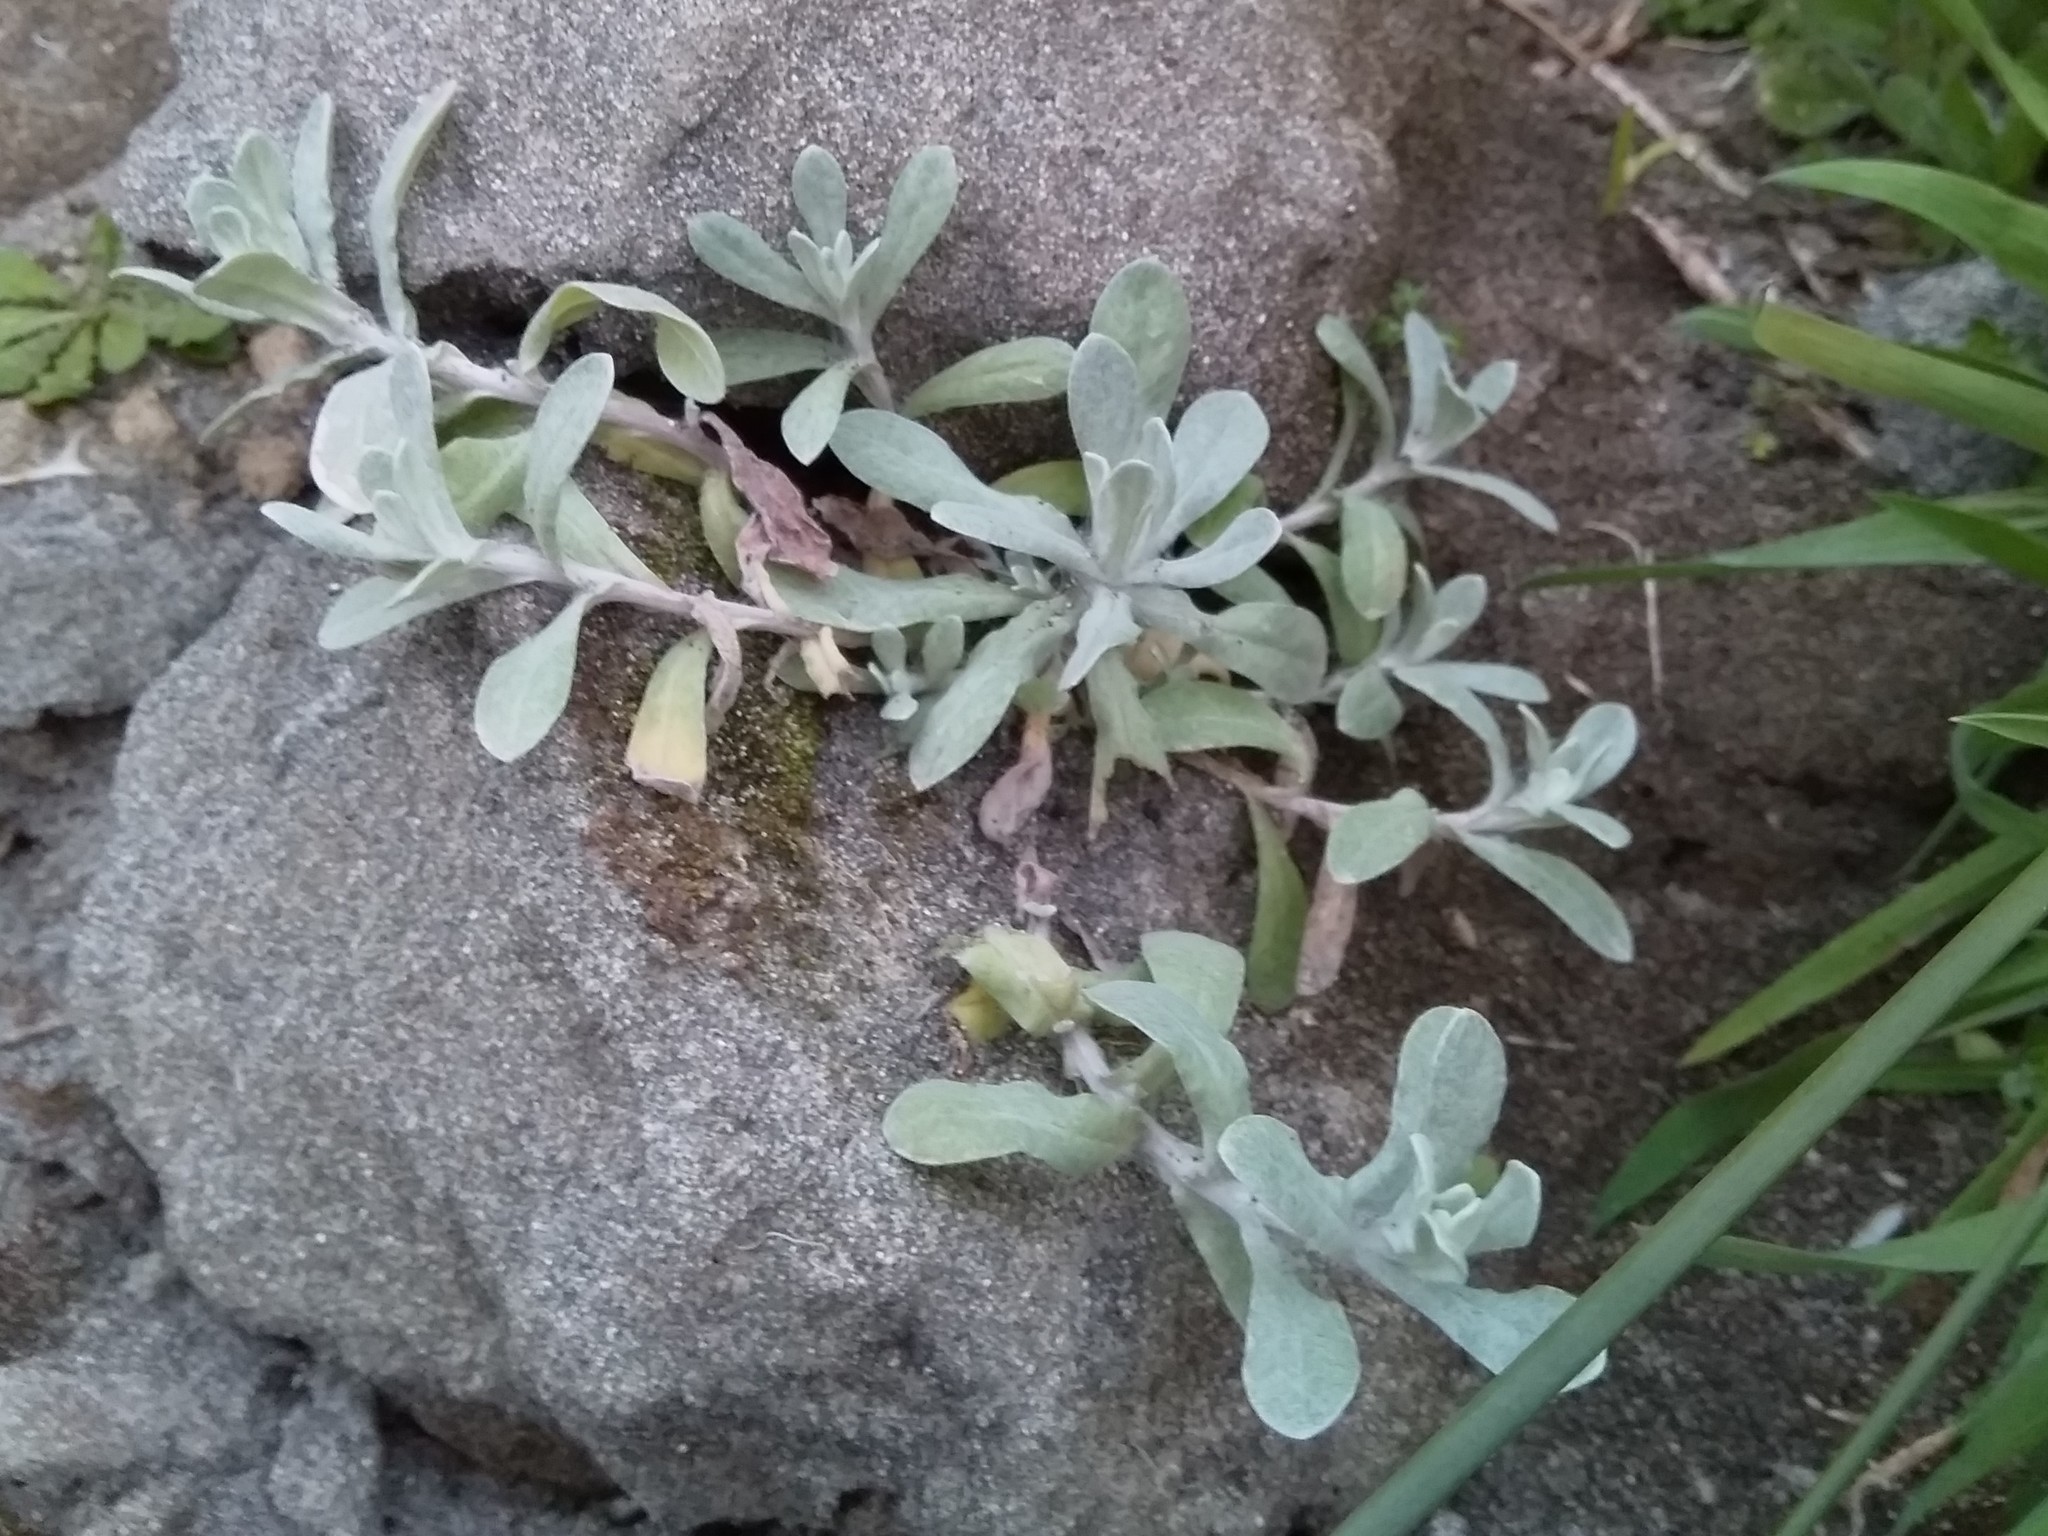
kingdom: Plantae
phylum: Tracheophyta
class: Magnoliopsida
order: Asterales
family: Asteraceae
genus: Helichrysum
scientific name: Helichrysum luteoalbum
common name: Daisy
